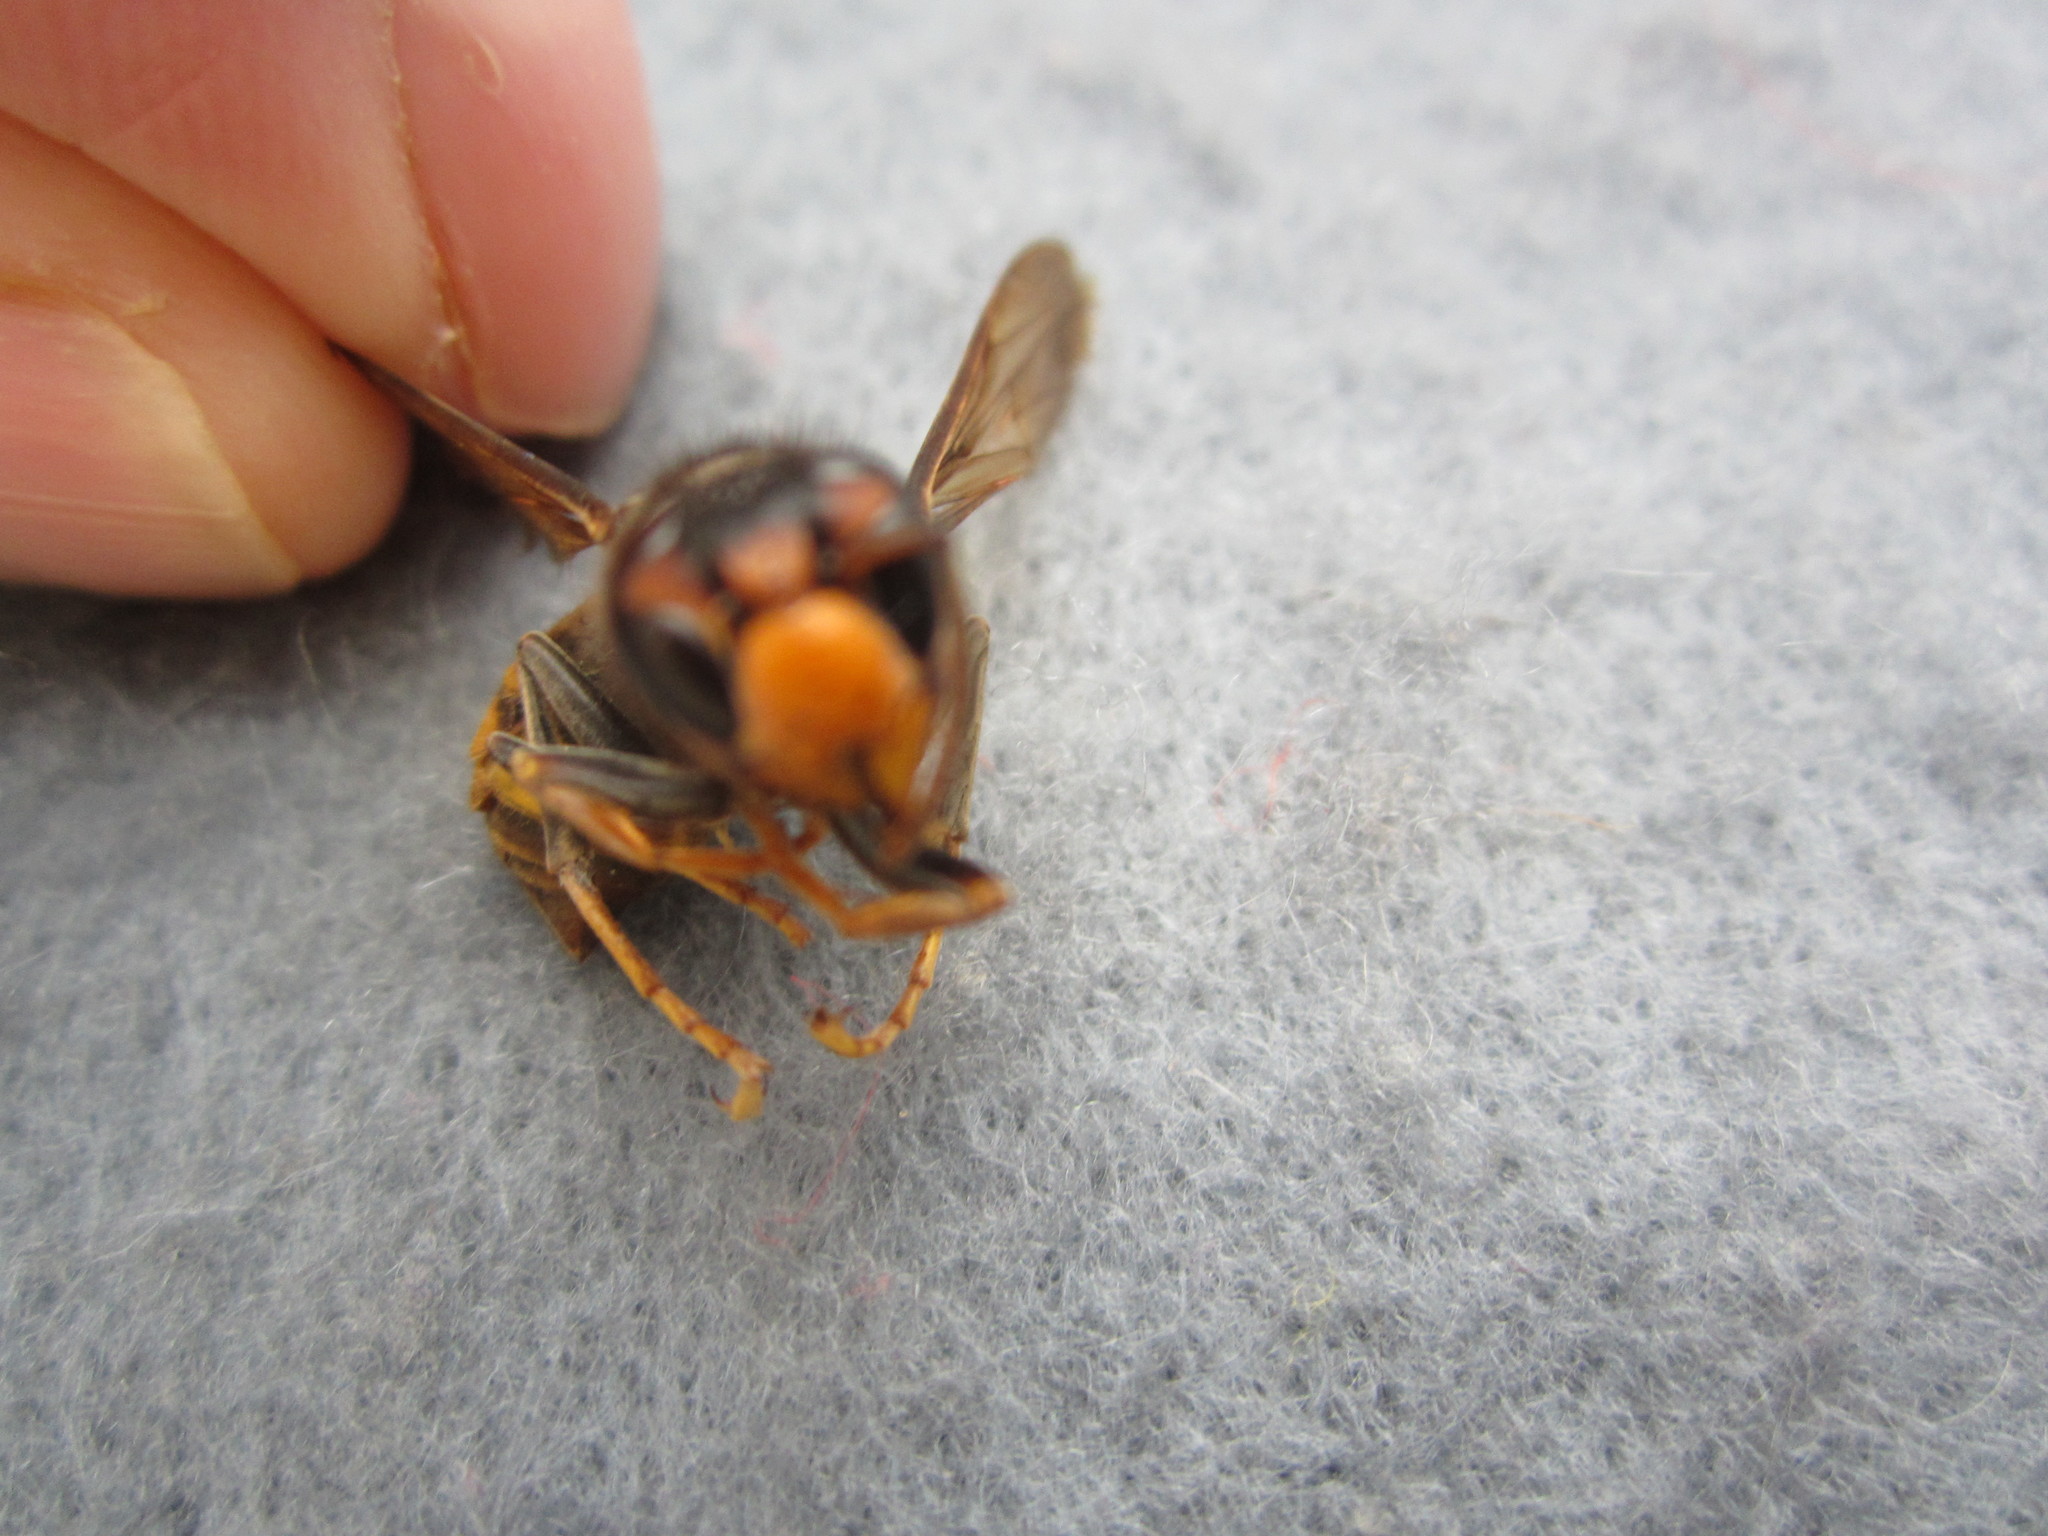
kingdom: Animalia
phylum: Arthropoda
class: Insecta
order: Hymenoptera
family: Vespidae
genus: Vespa
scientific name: Vespa velutina
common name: Asian hornet
